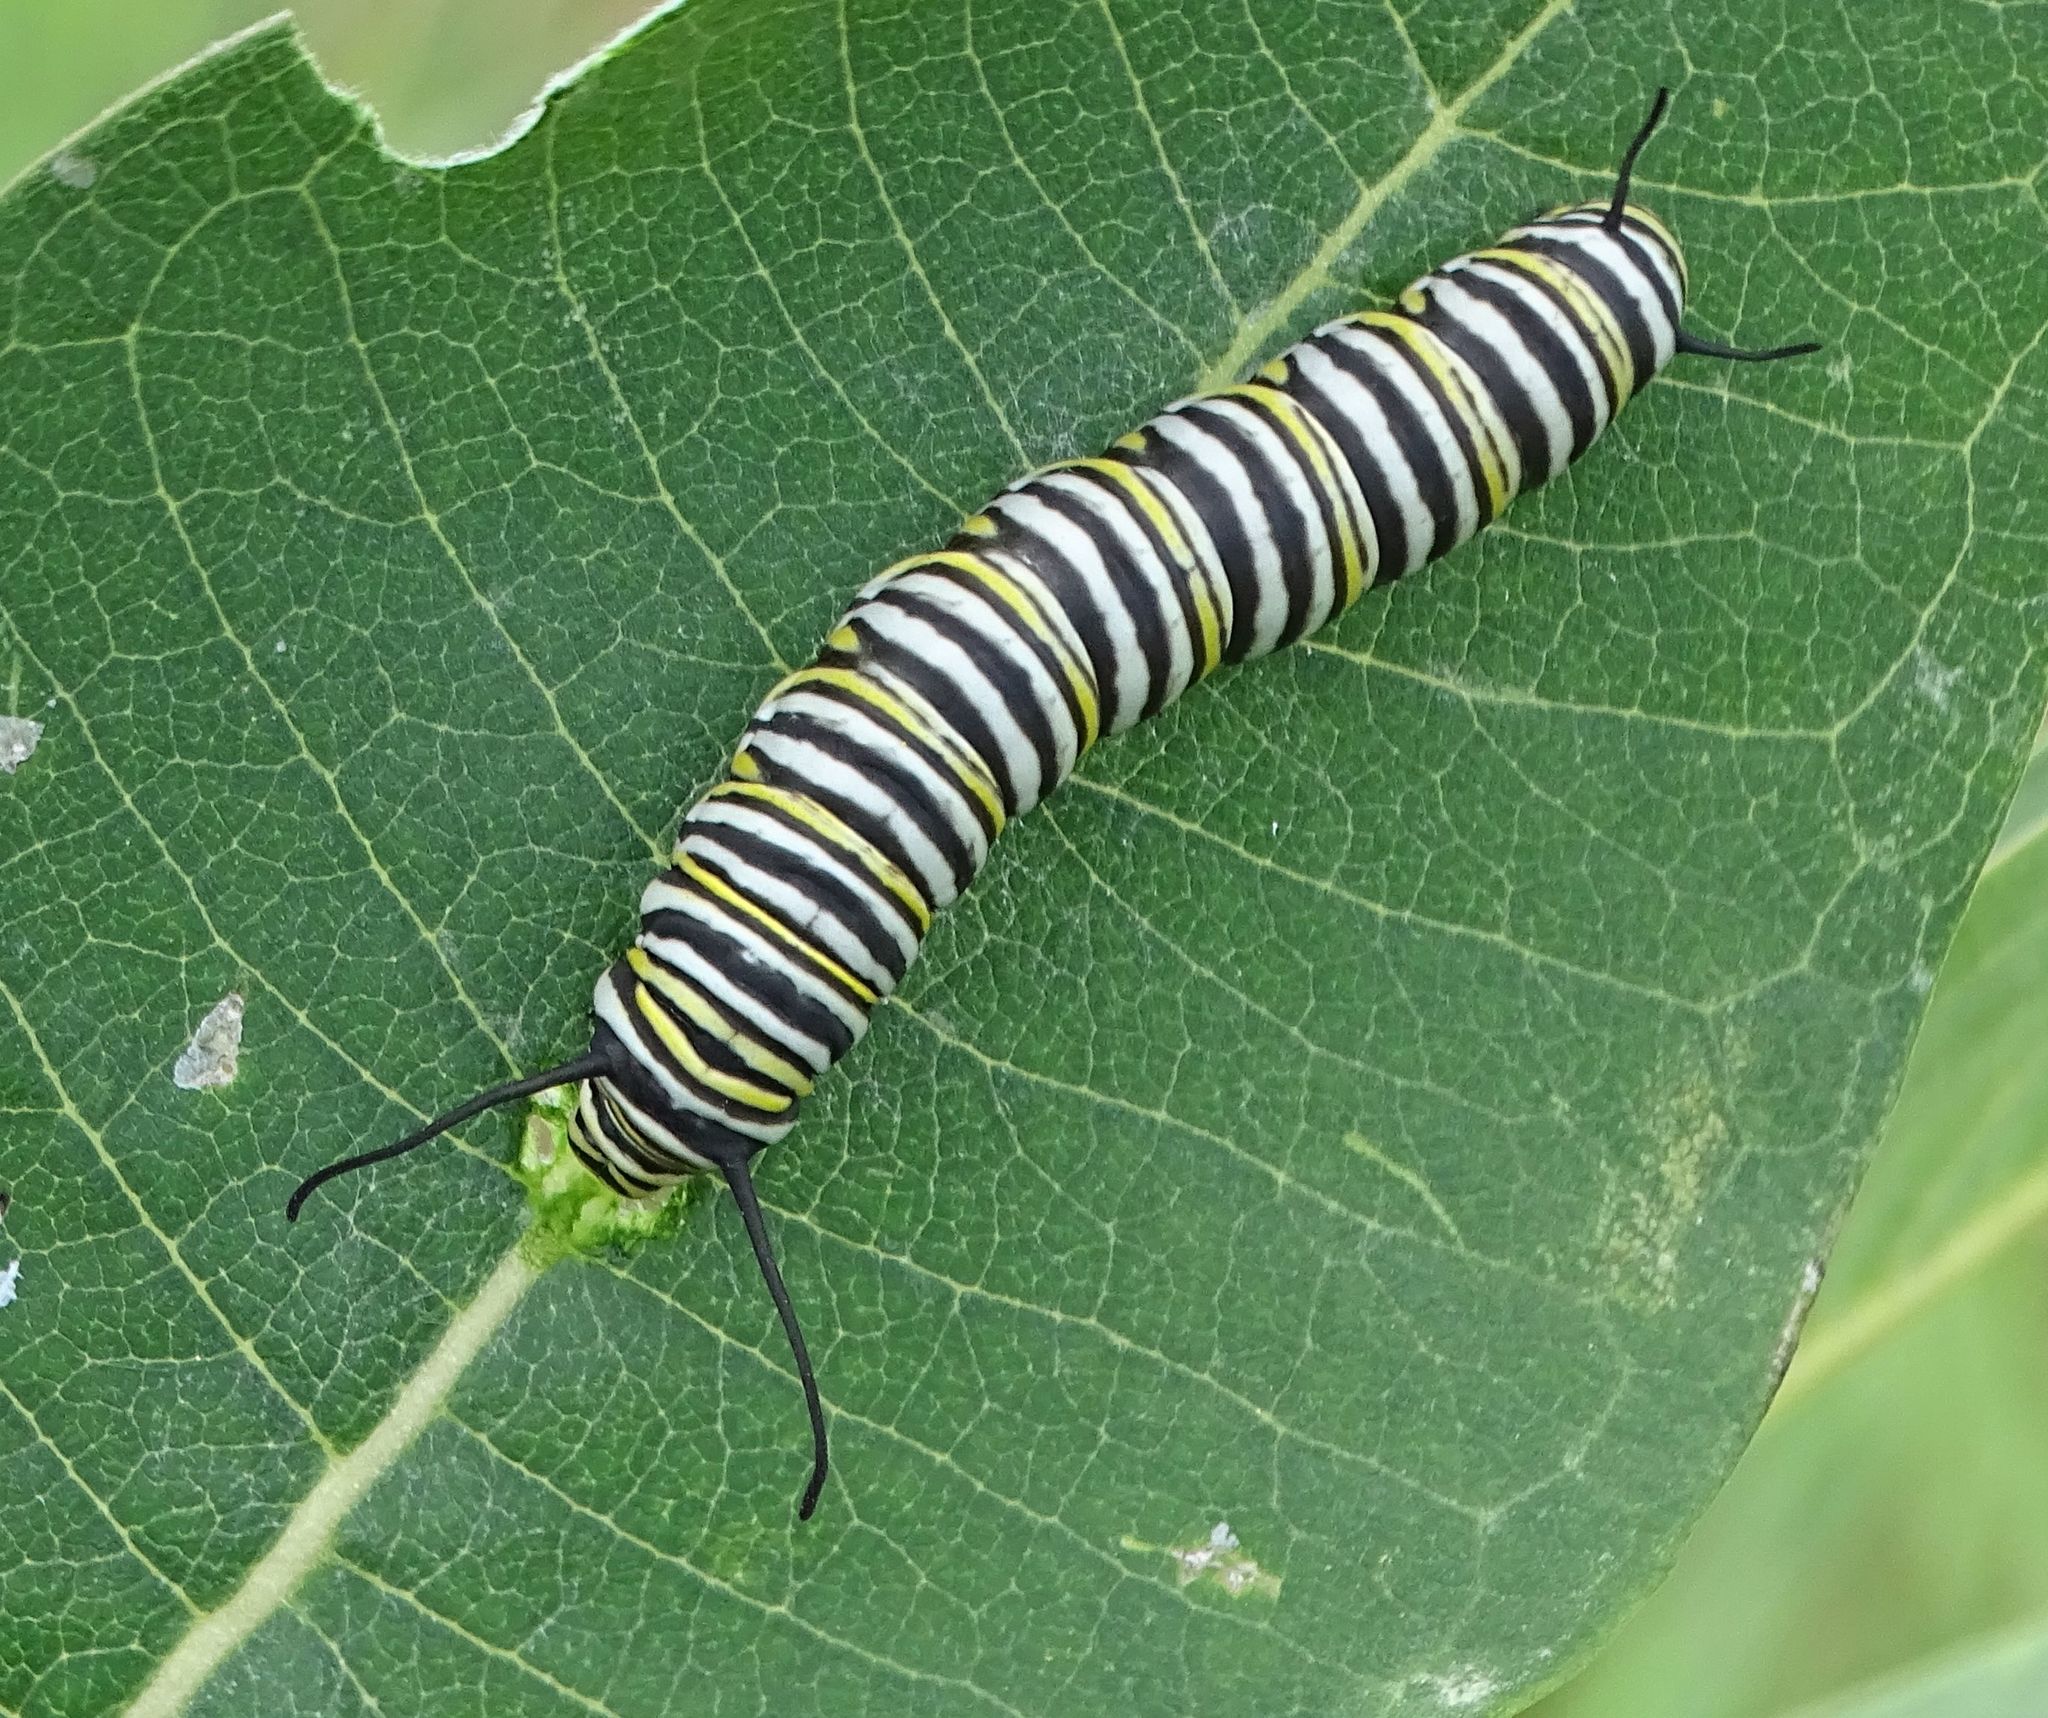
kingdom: Animalia
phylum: Arthropoda
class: Insecta
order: Lepidoptera
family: Nymphalidae
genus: Danaus
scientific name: Danaus plexippus
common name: Monarch
